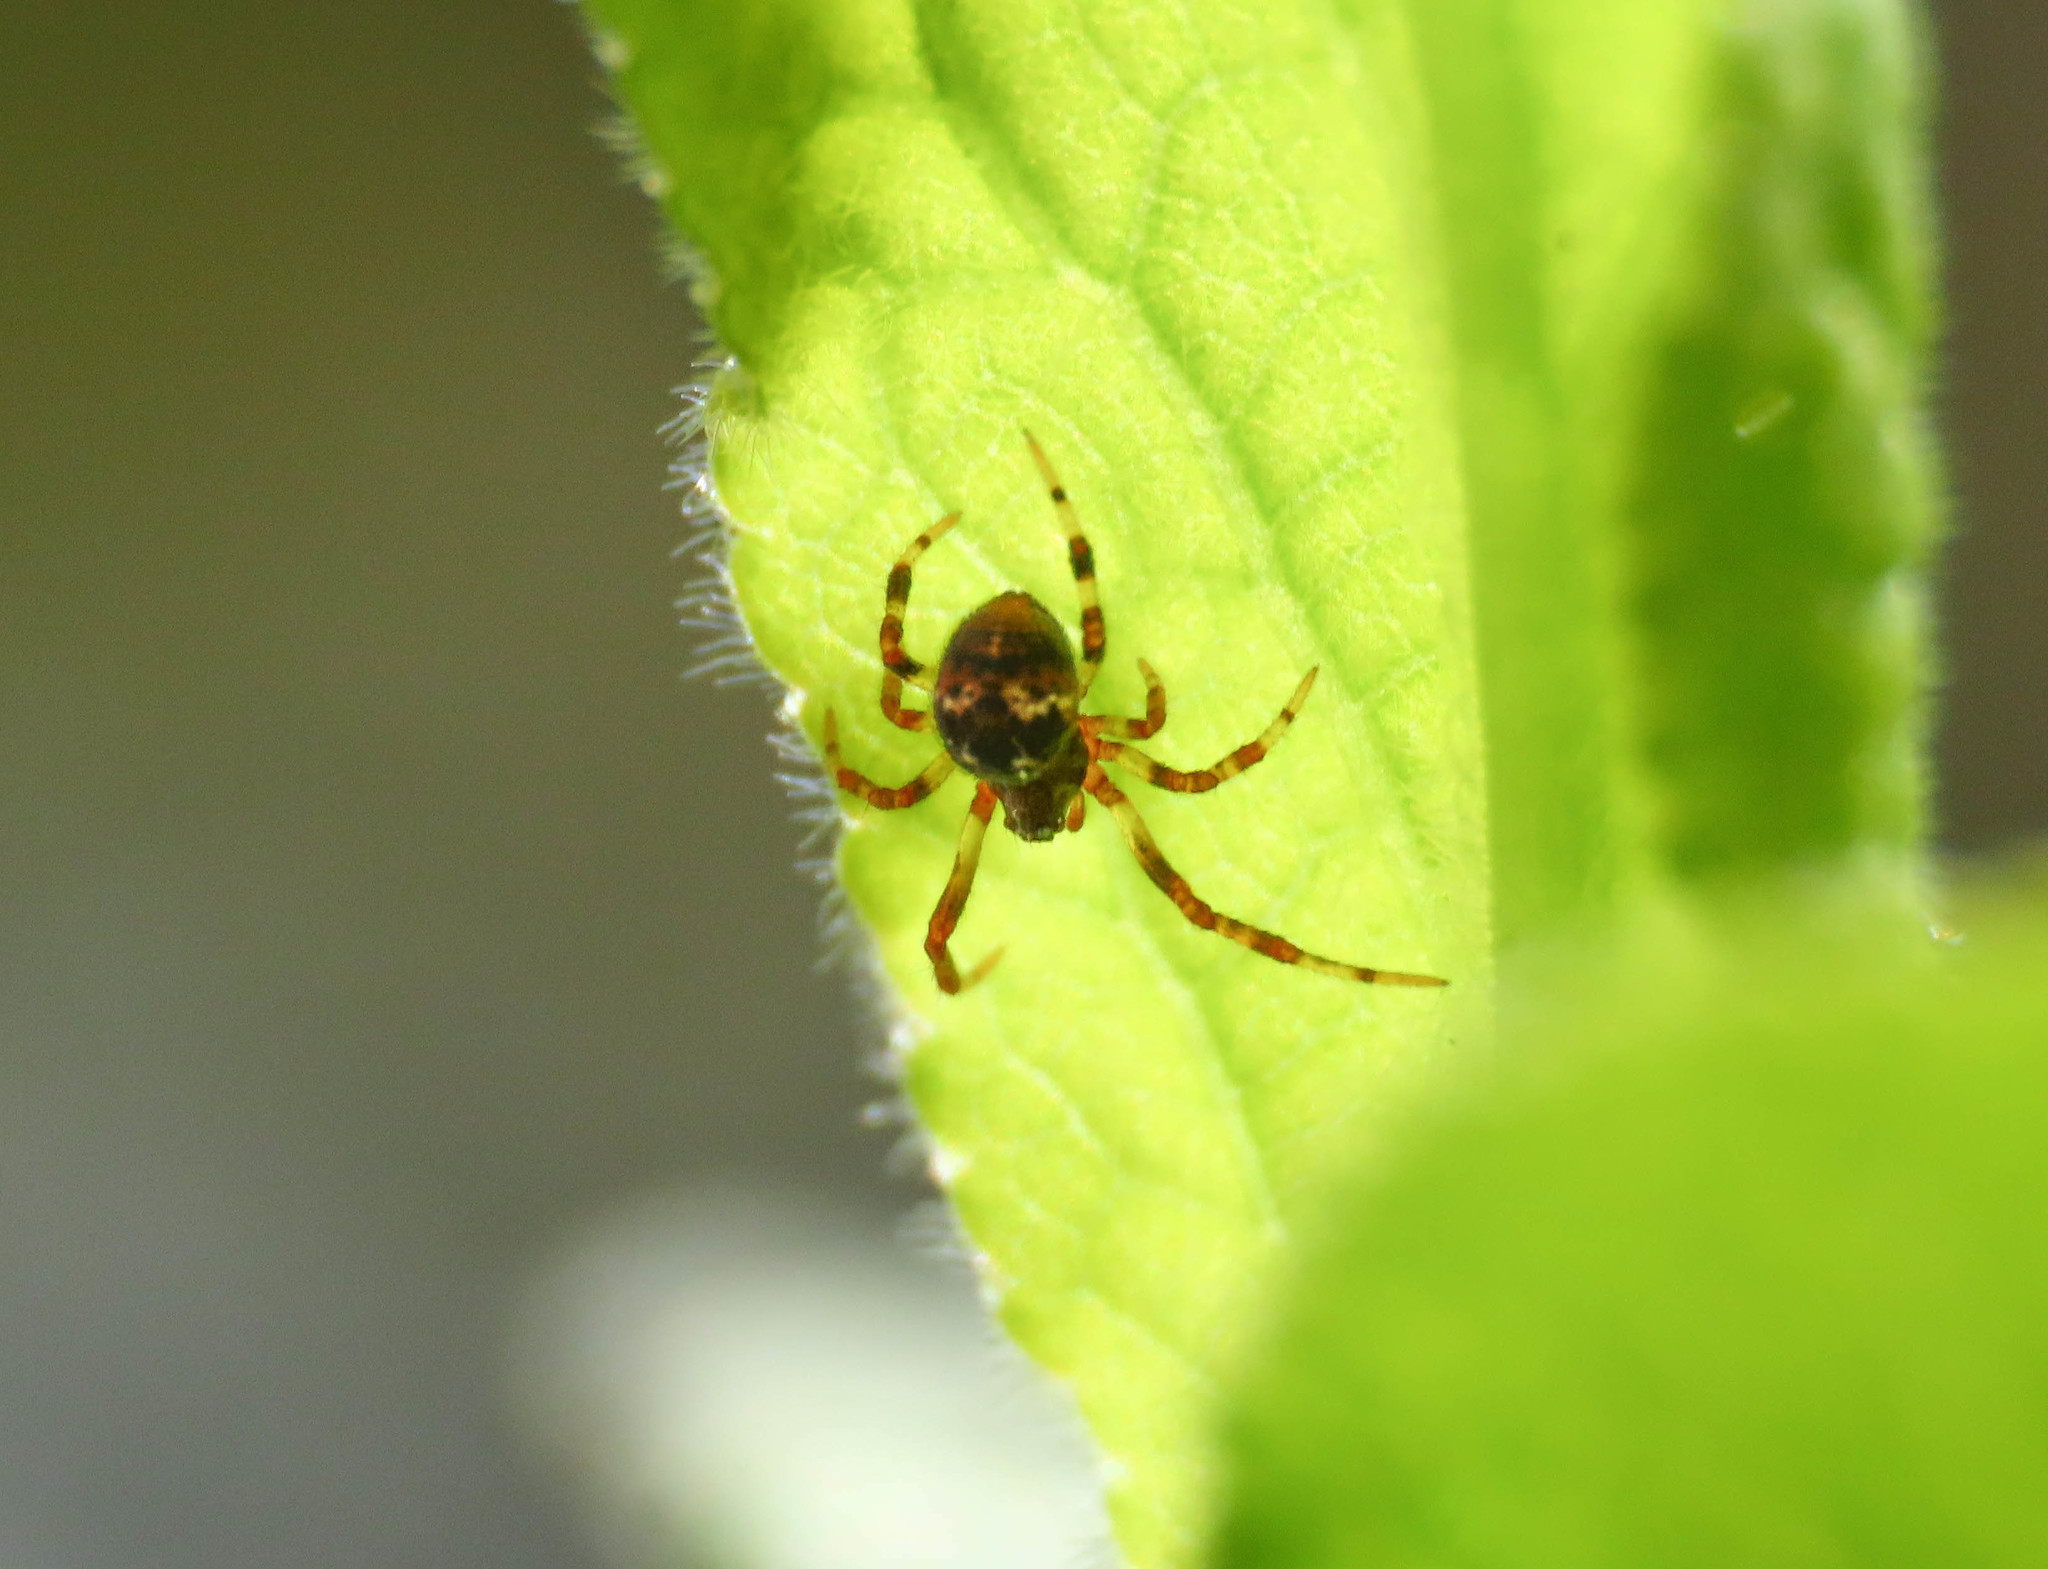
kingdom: Animalia
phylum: Arthropoda
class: Arachnida
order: Araneae
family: Theridiidae
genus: Cryptachaea
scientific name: Cryptachaea riparia
